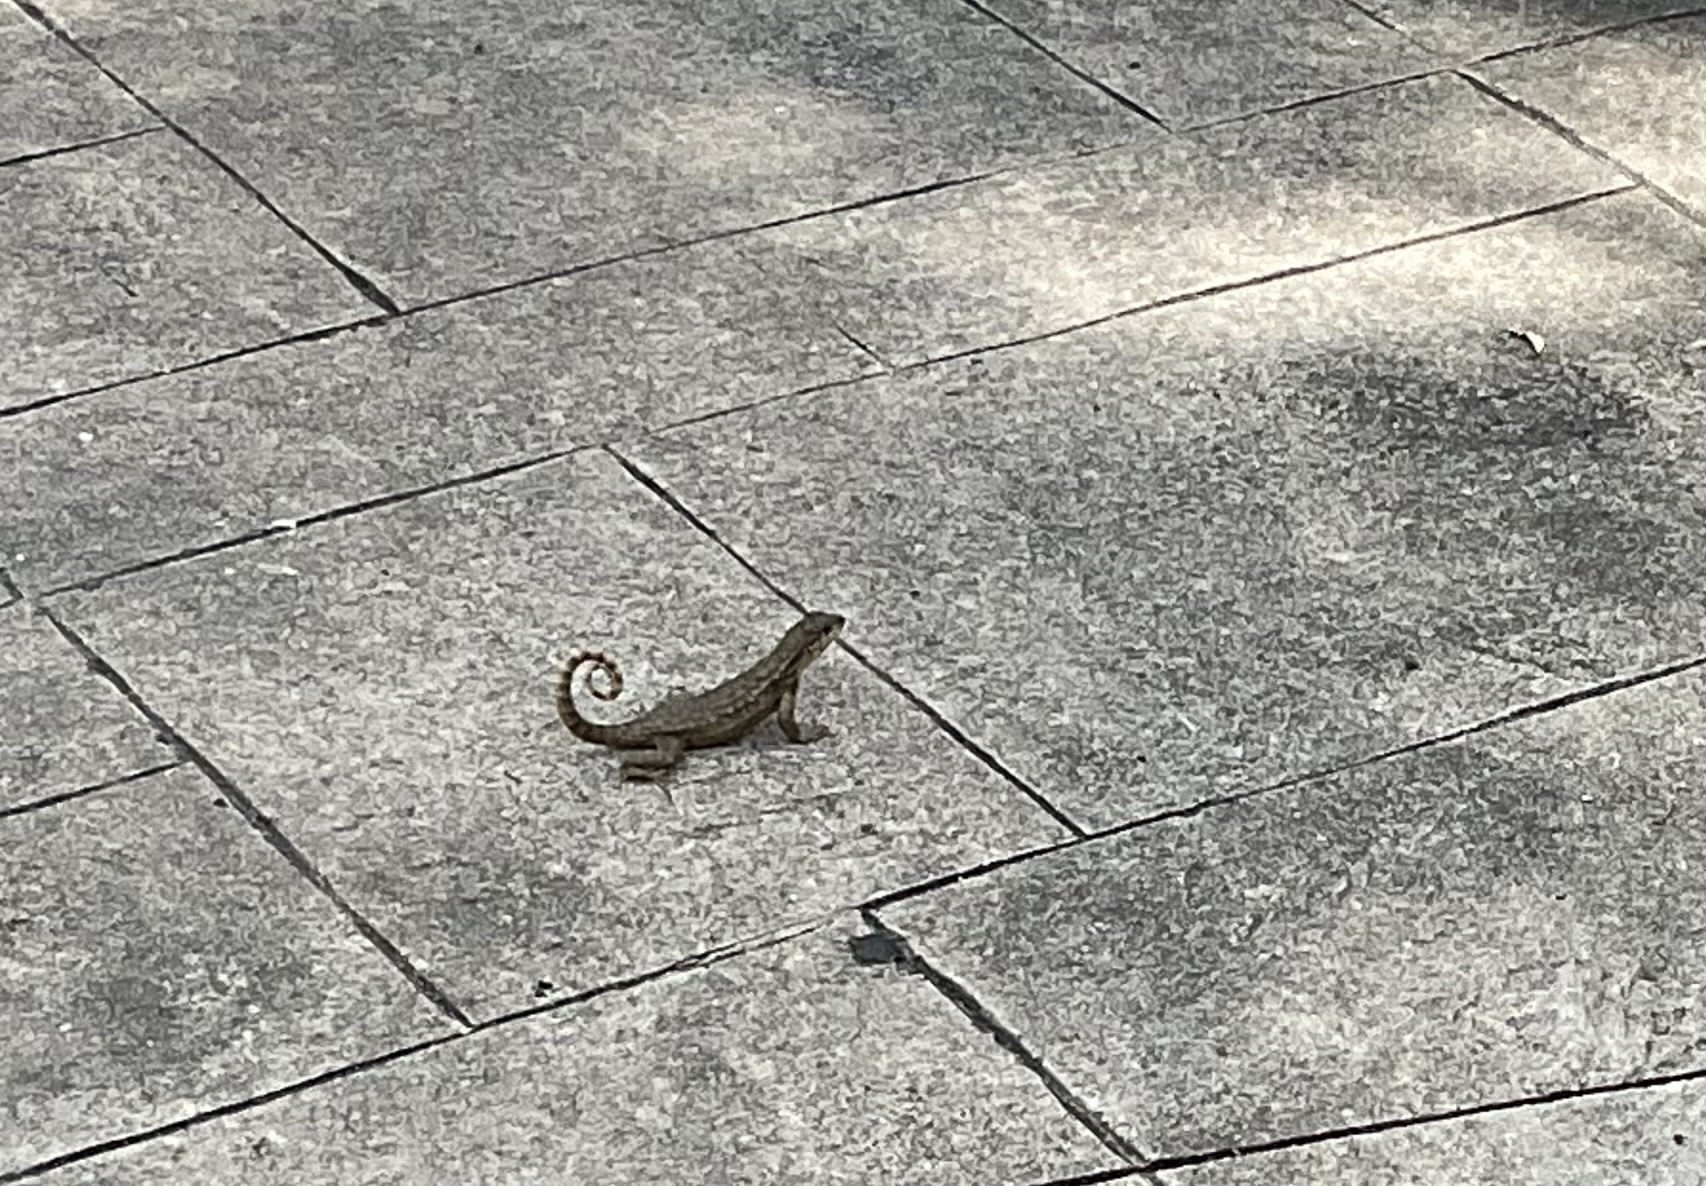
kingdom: Animalia
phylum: Chordata
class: Squamata
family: Leiocephalidae
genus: Leiocephalus
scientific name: Leiocephalus carinatus
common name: Northern curly-tailed lizard
